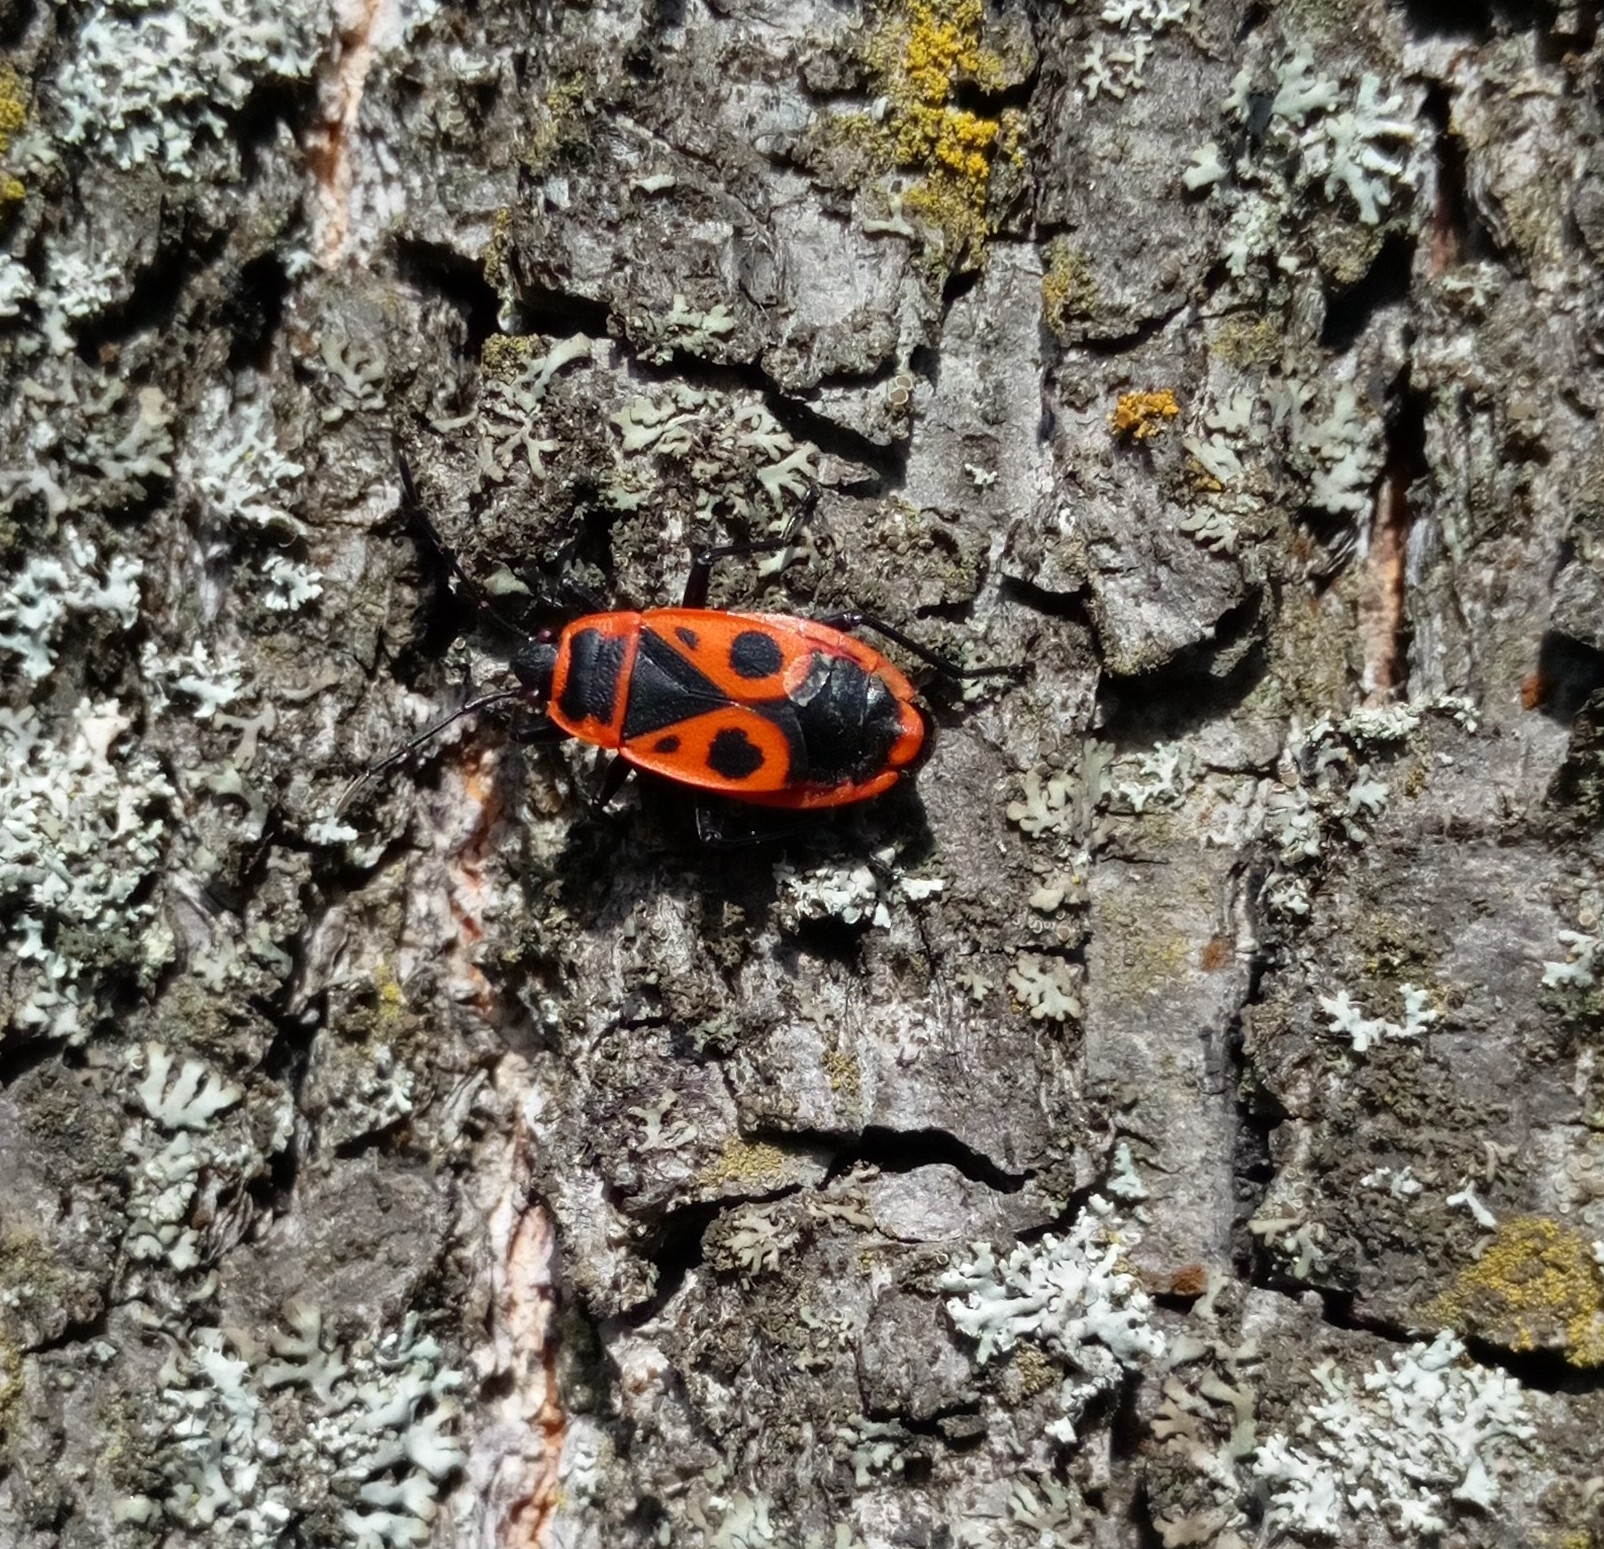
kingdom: Animalia
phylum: Arthropoda
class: Insecta
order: Hemiptera
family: Pyrrhocoridae
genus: Pyrrhocoris
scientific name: Pyrrhocoris apterus
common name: Firebug
